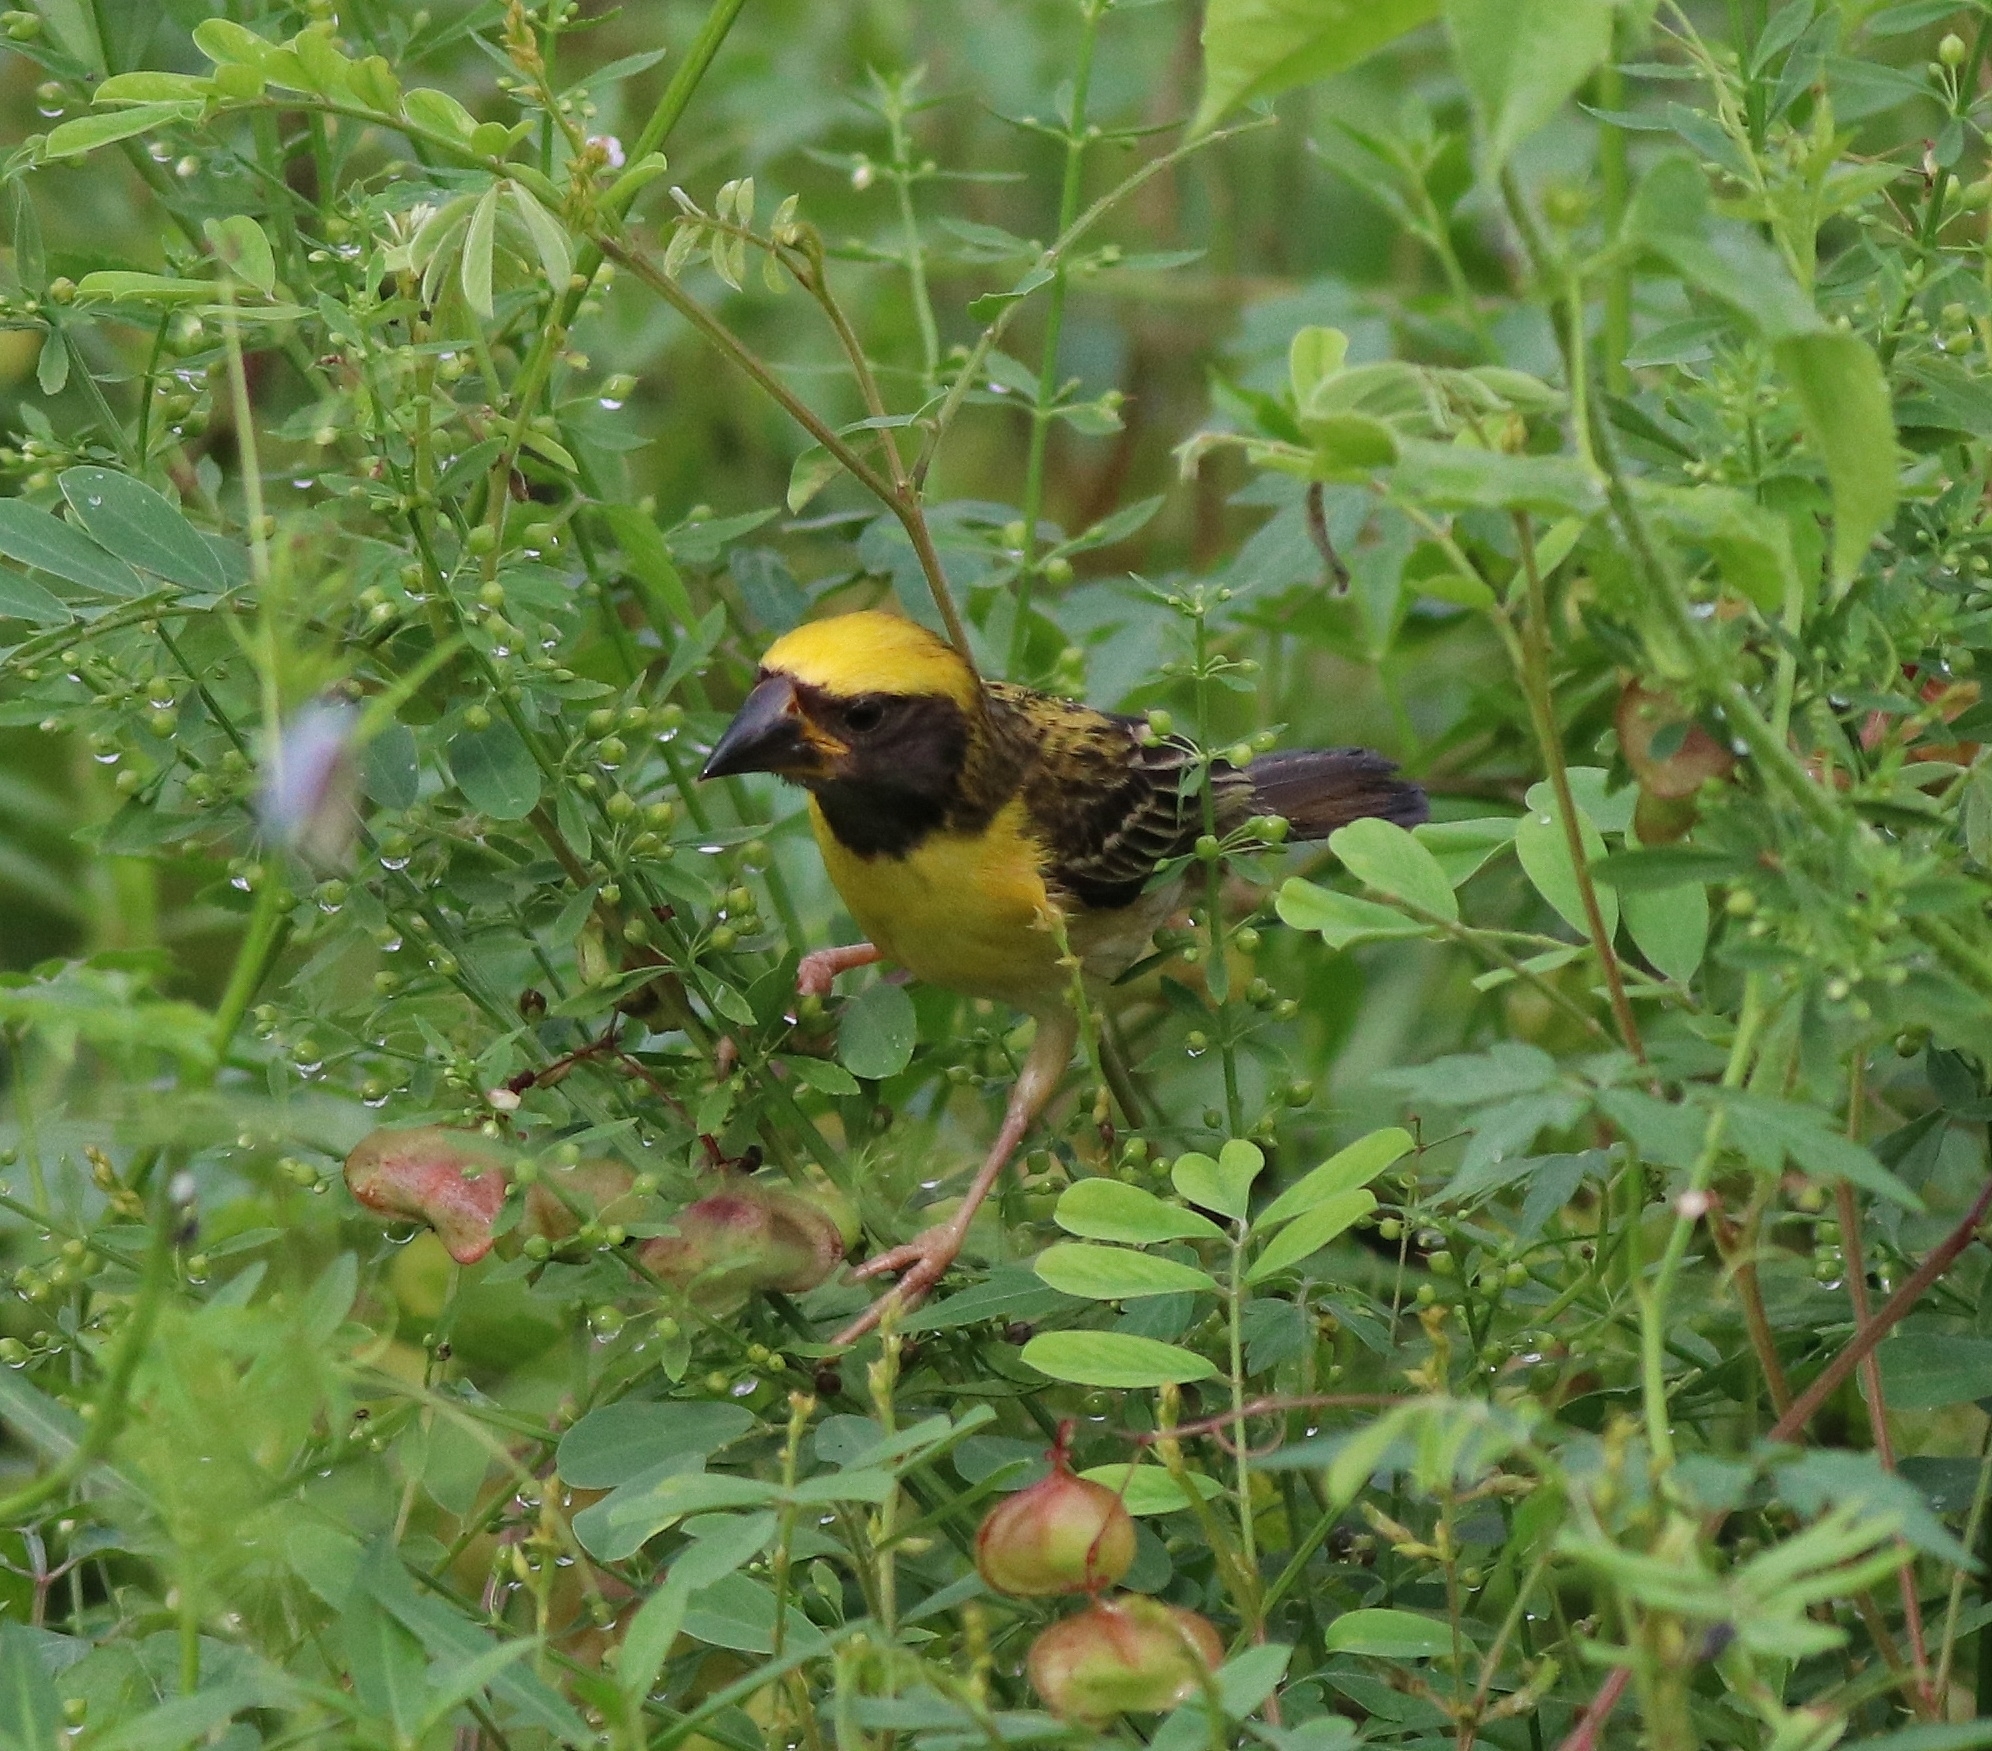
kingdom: Animalia
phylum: Chordata
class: Aves
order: Passeriformes
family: Ploceidae
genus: Ploceus
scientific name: Ploceus philippinus
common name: Baya weaver
